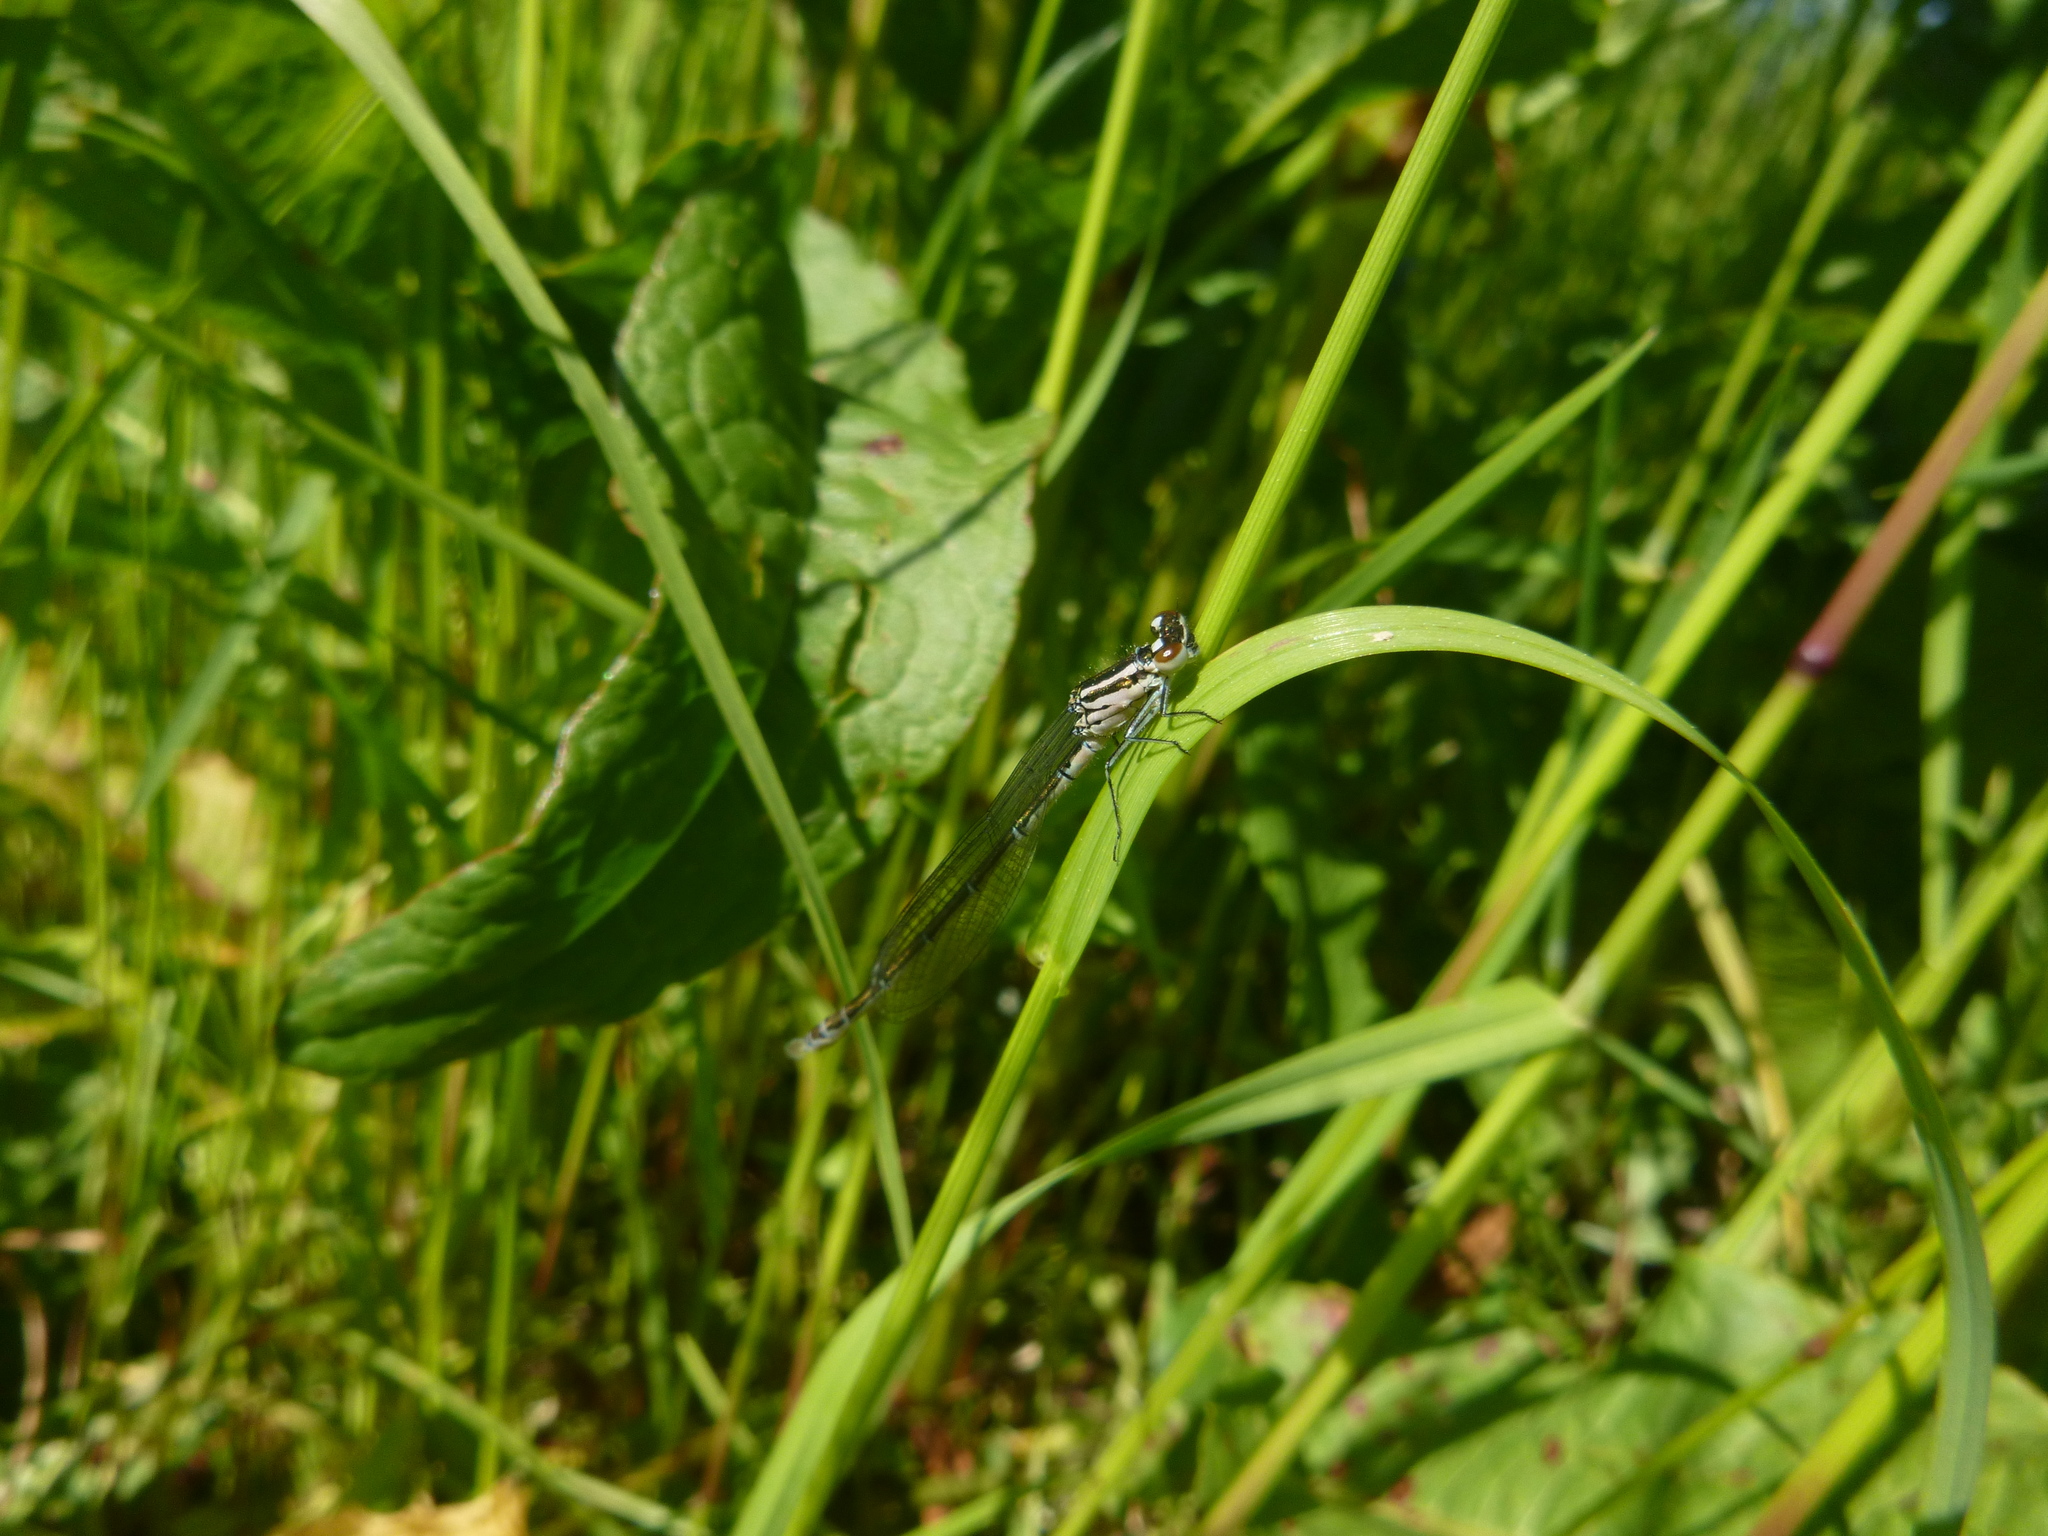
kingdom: Animalia
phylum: Arthropoda
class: Insecta
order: Odonata
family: Coenagrionidae
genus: Coenagrion
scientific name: Coenagrion puella
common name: Azure damselfly
